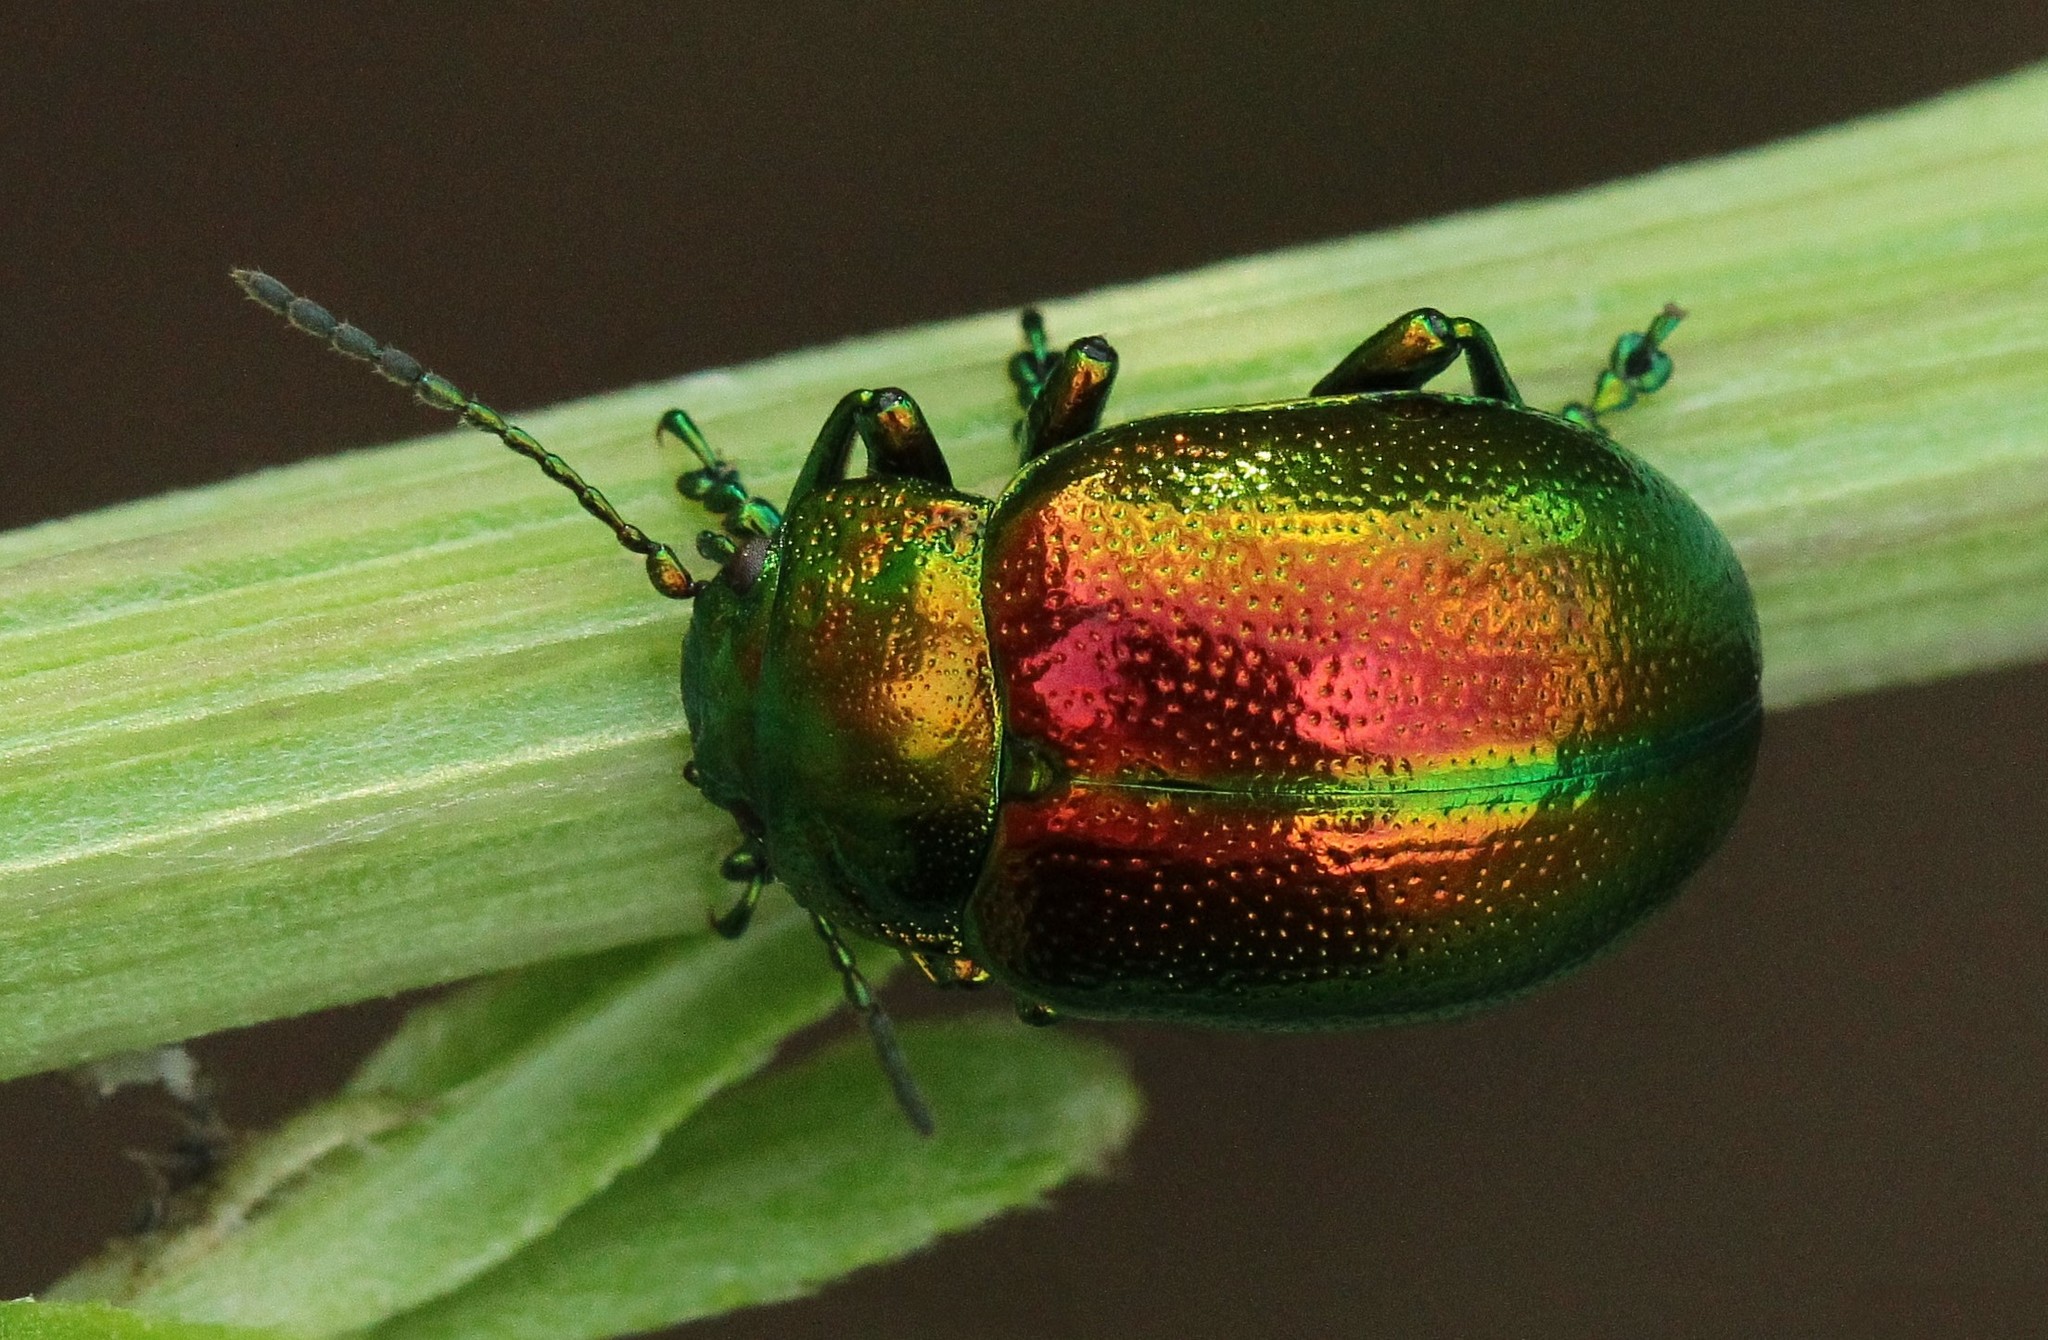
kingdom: Animalia
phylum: Arthropoda
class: Insecta
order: Coleoptera
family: Chrysomelidae
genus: Chrysolina
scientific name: Chrysolina graminis
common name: Tansey beetle
